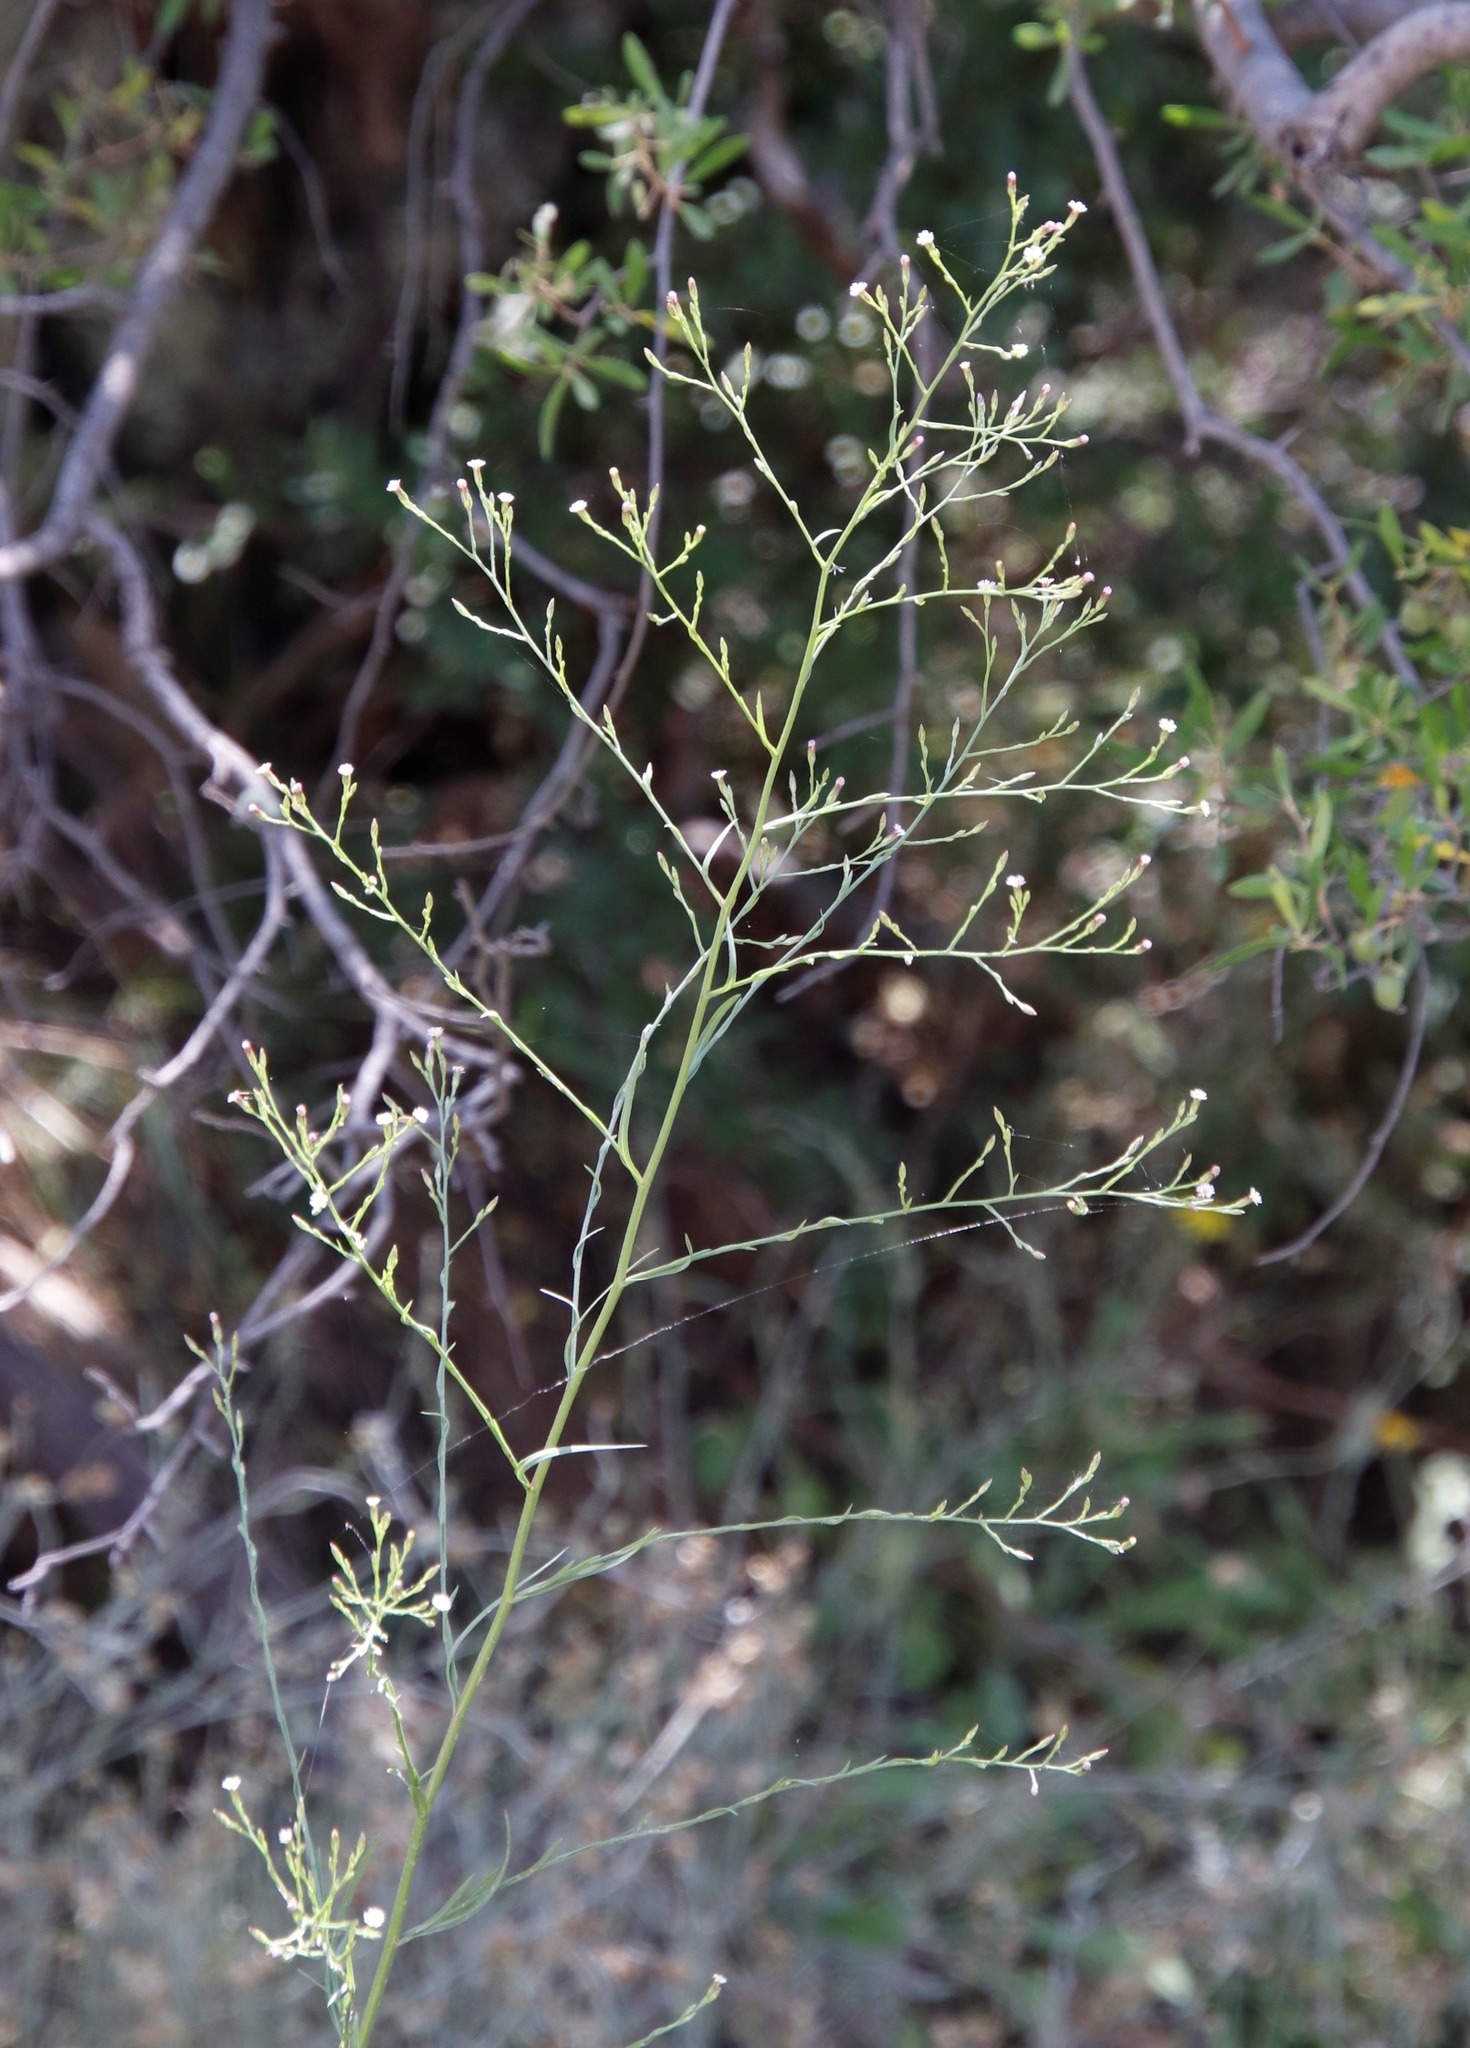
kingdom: Plantae
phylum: Tracheophyta
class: Magnoliopsida
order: Asterales
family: Asteraceae
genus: Symphyotrichum
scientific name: Symphyotrichum squamatum
